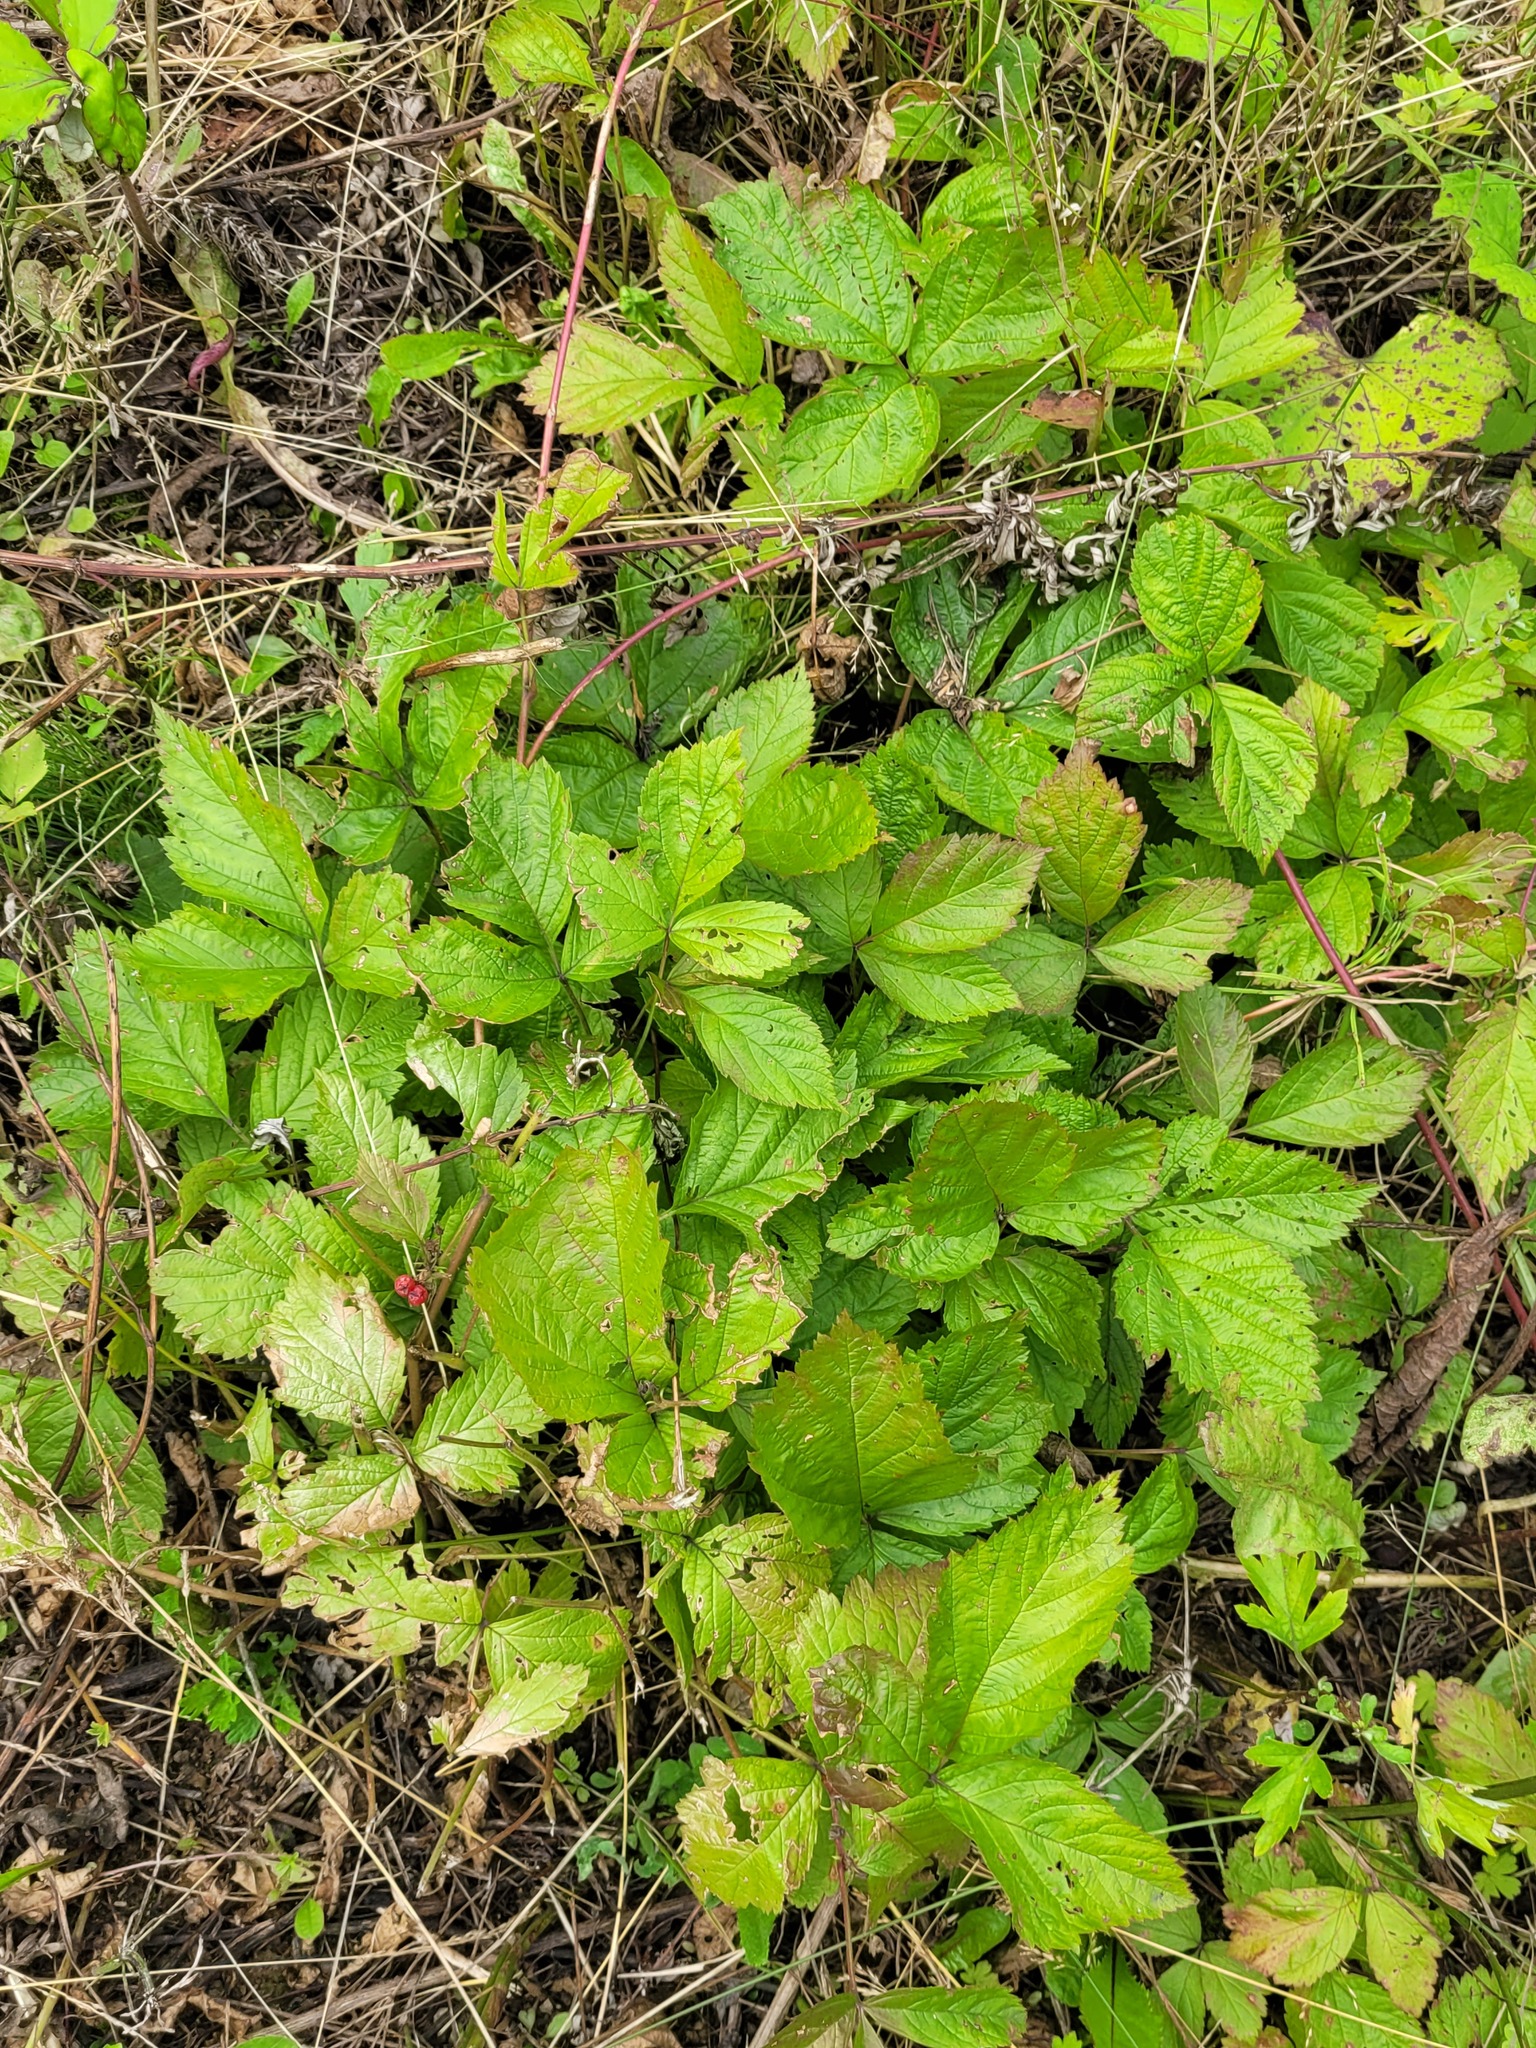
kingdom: Plantae
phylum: Tracheophyta
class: Magnoliopsida
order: Rosales
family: Rosaceae
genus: Rubus
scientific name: Rubus saxatilis
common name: Stone bramble
